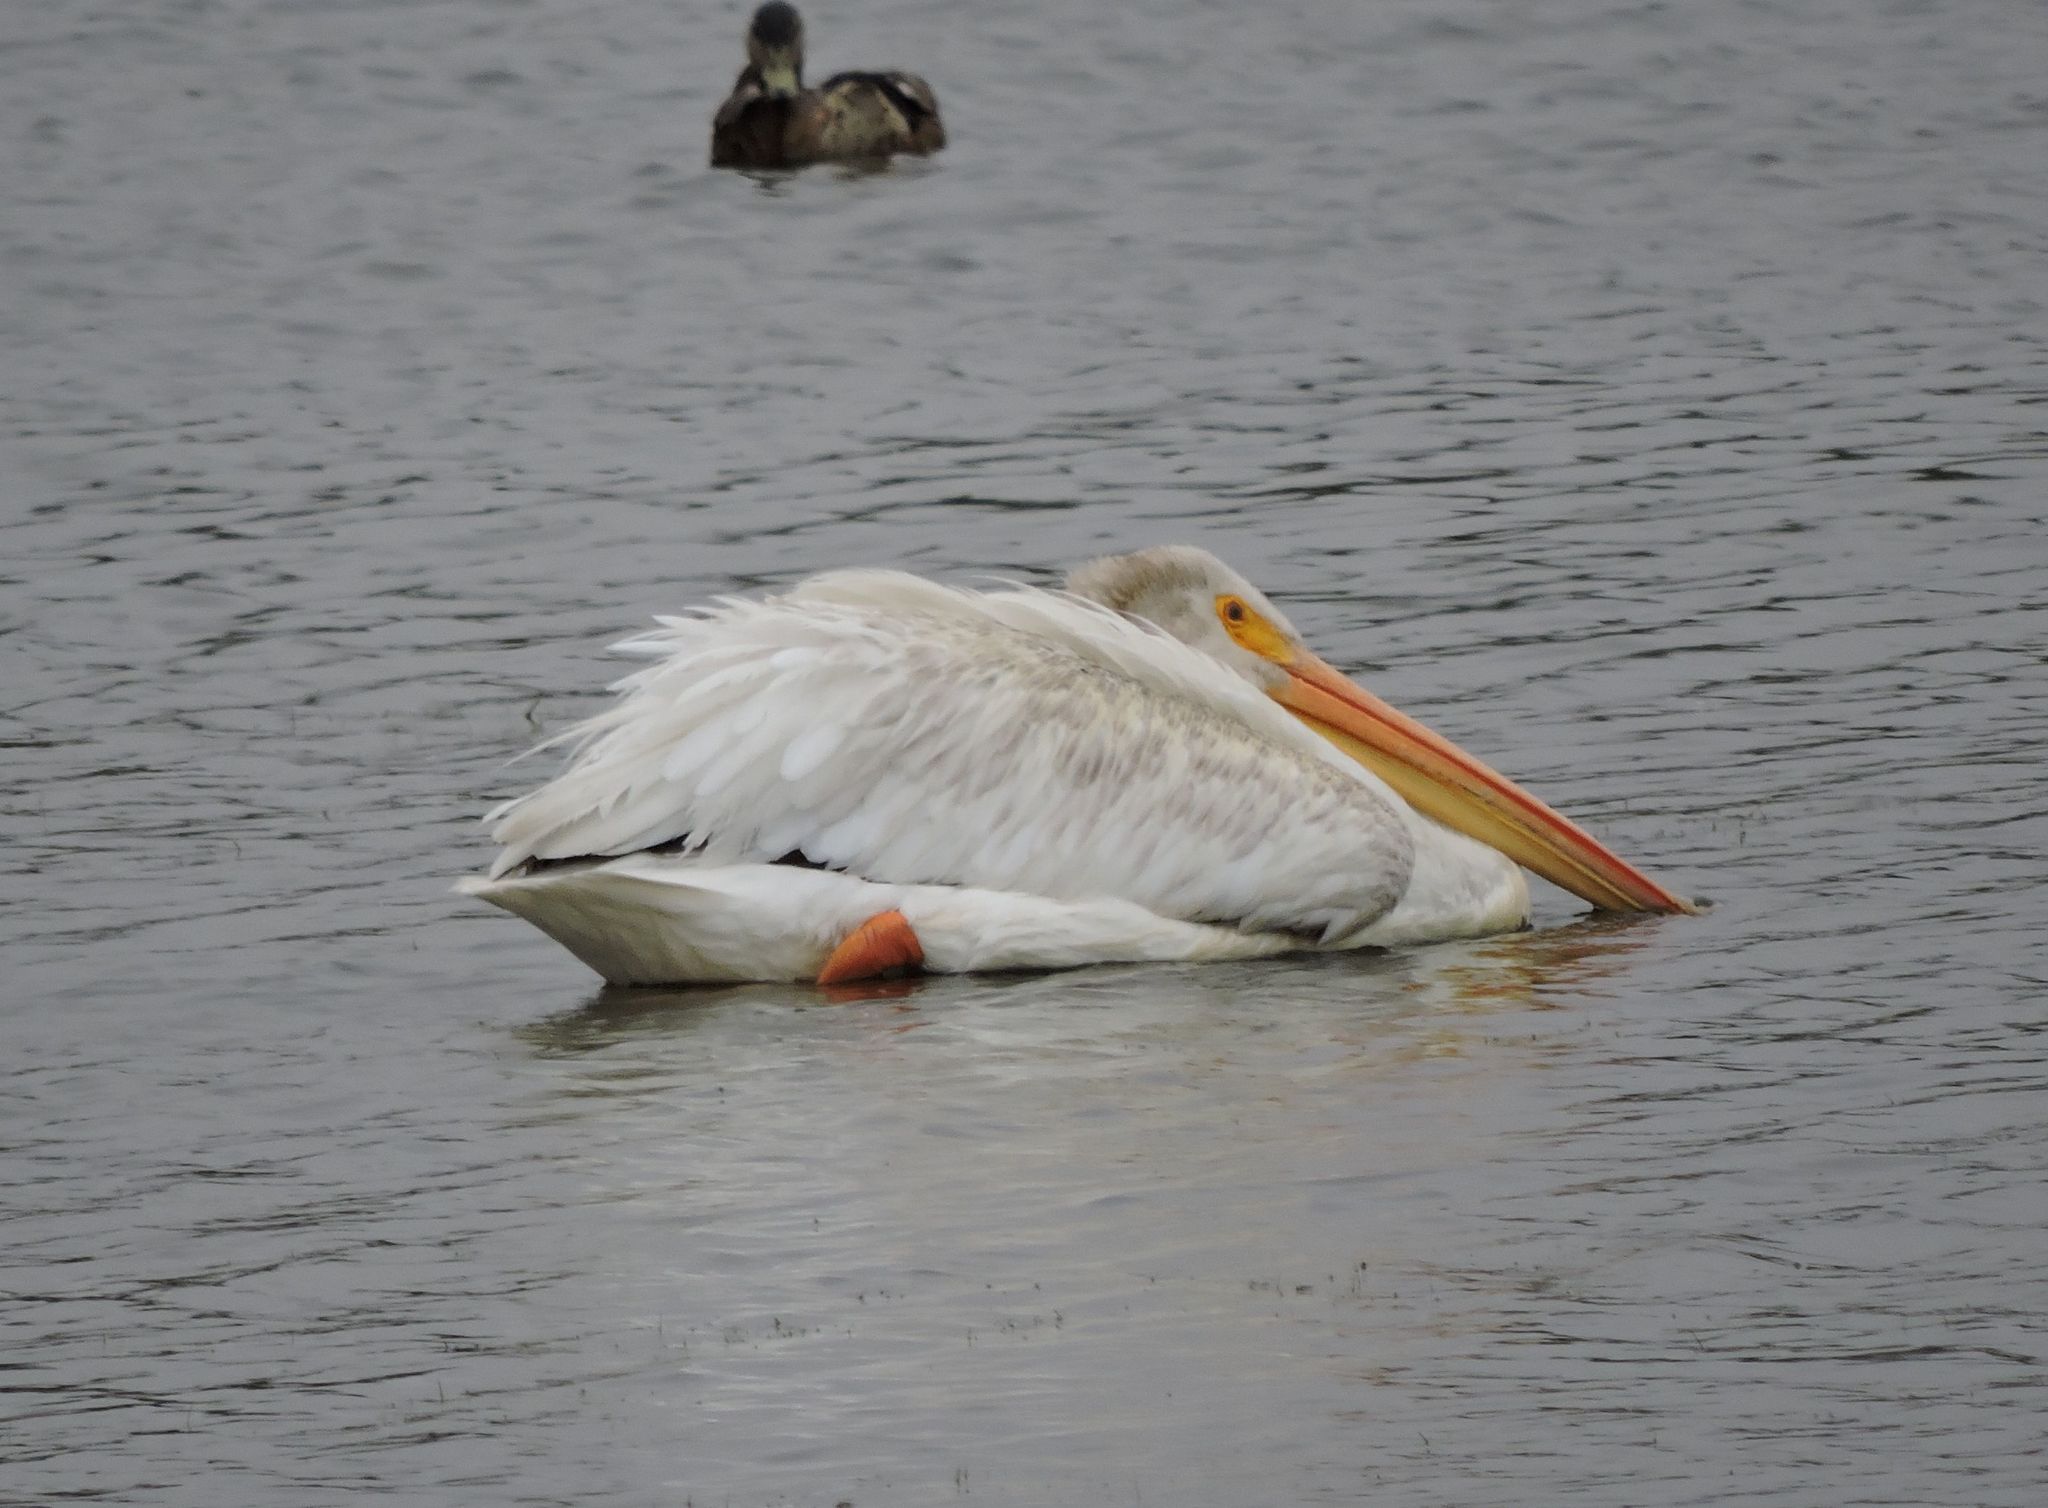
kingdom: Animalia
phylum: Chordata
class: Aves
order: Pelecaniformes
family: Pelecanidae
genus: Pelecanus
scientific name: Pelecanus erythrorhynchos
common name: American white pelican
